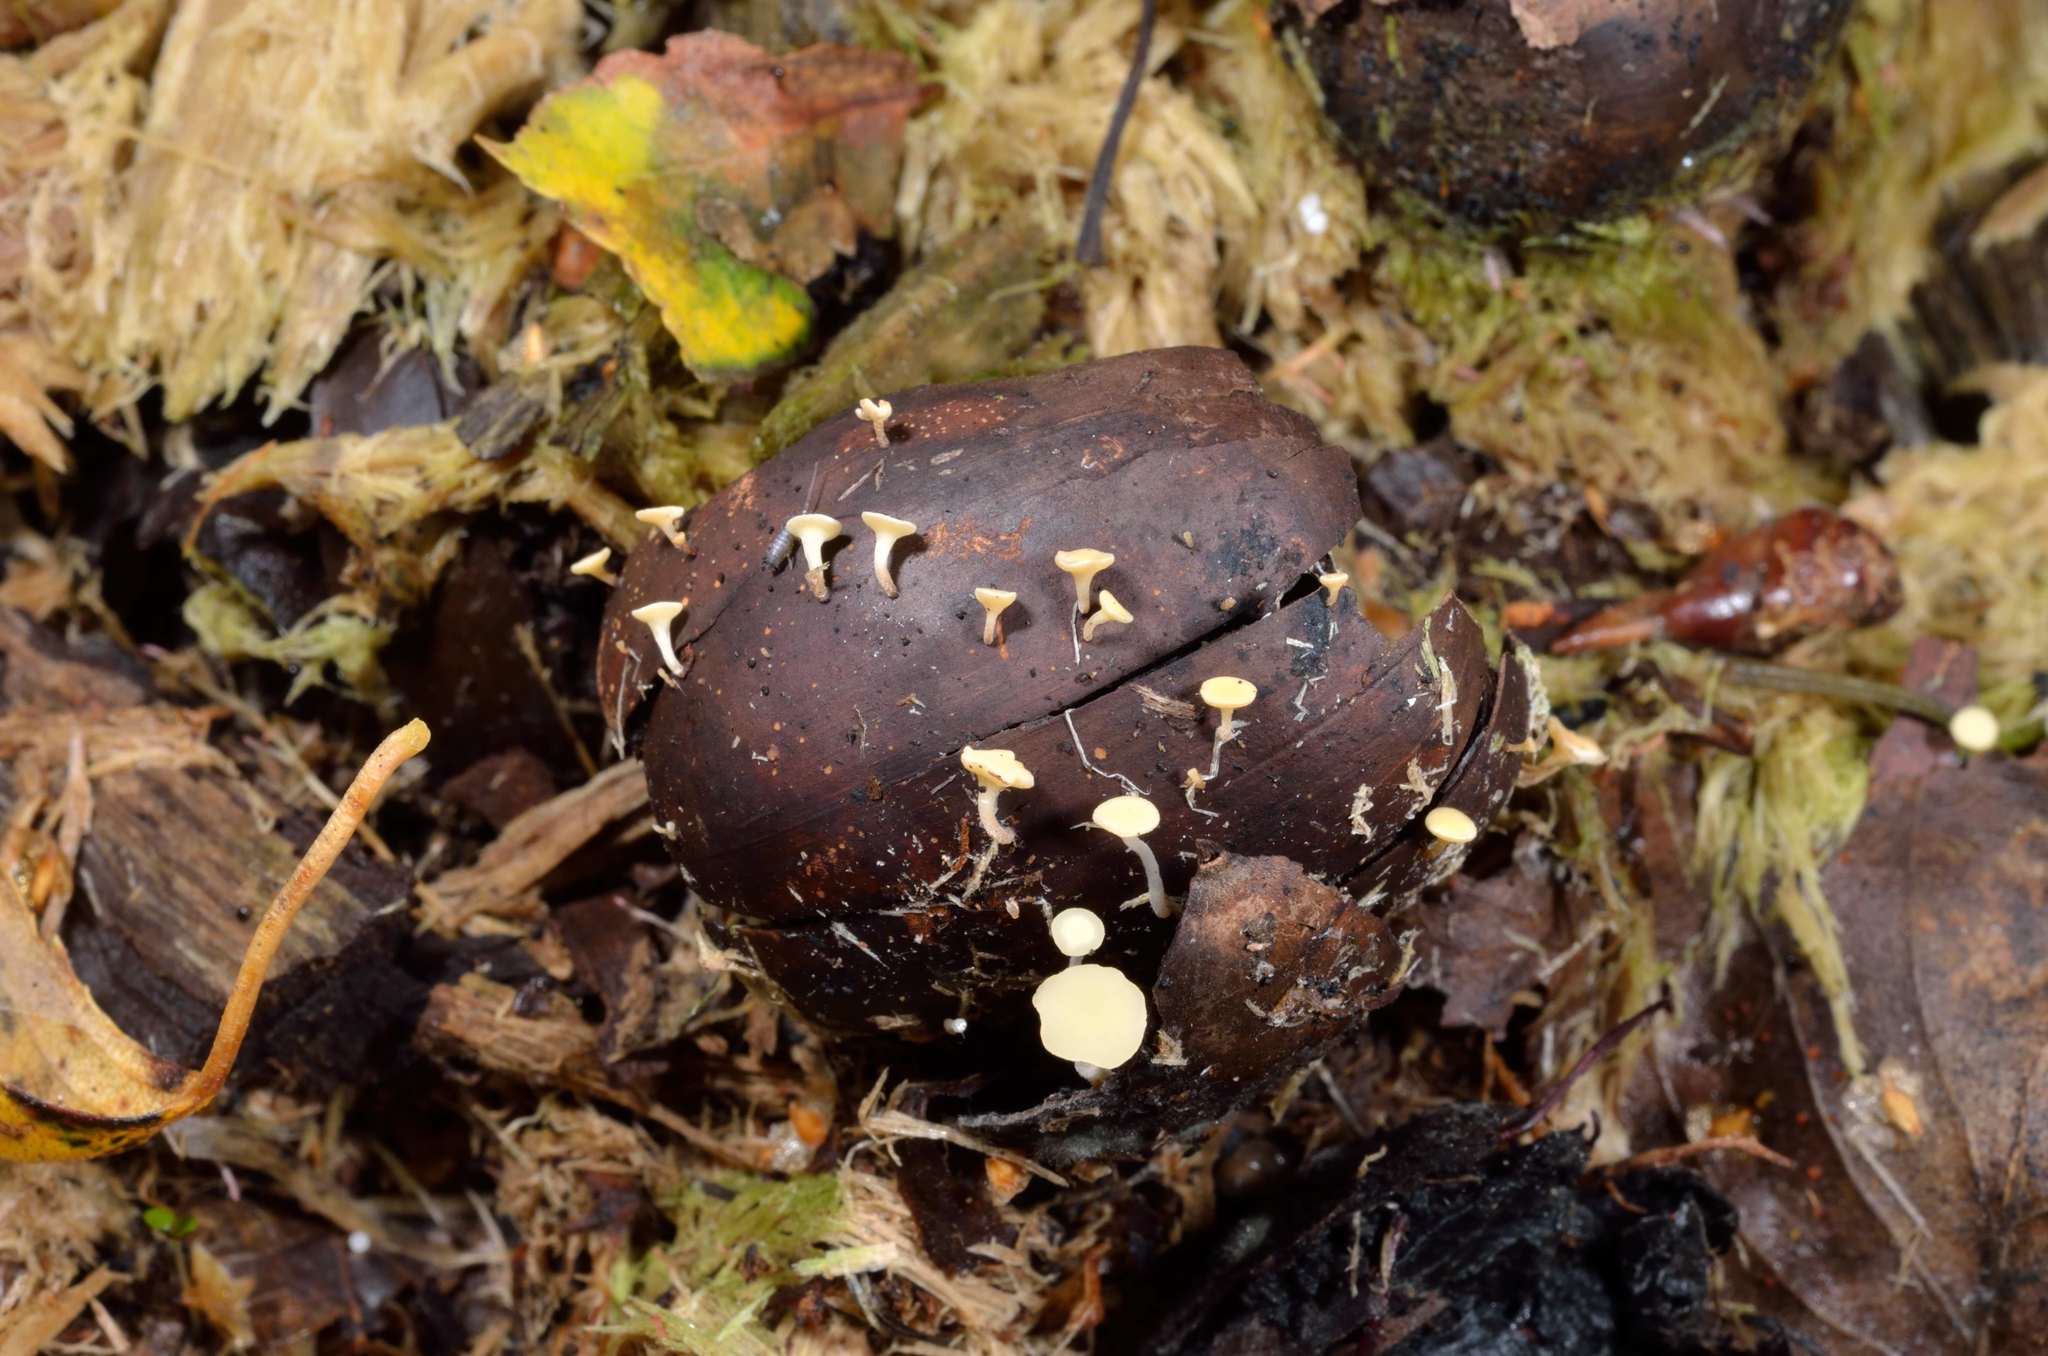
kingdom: Fungi
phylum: Ascomycota
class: Leotiomycetes
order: Helotiales
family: Helotiaceae
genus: Hymenoscyphus
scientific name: Hymenoscyphus fructigenus
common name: Nut disco
